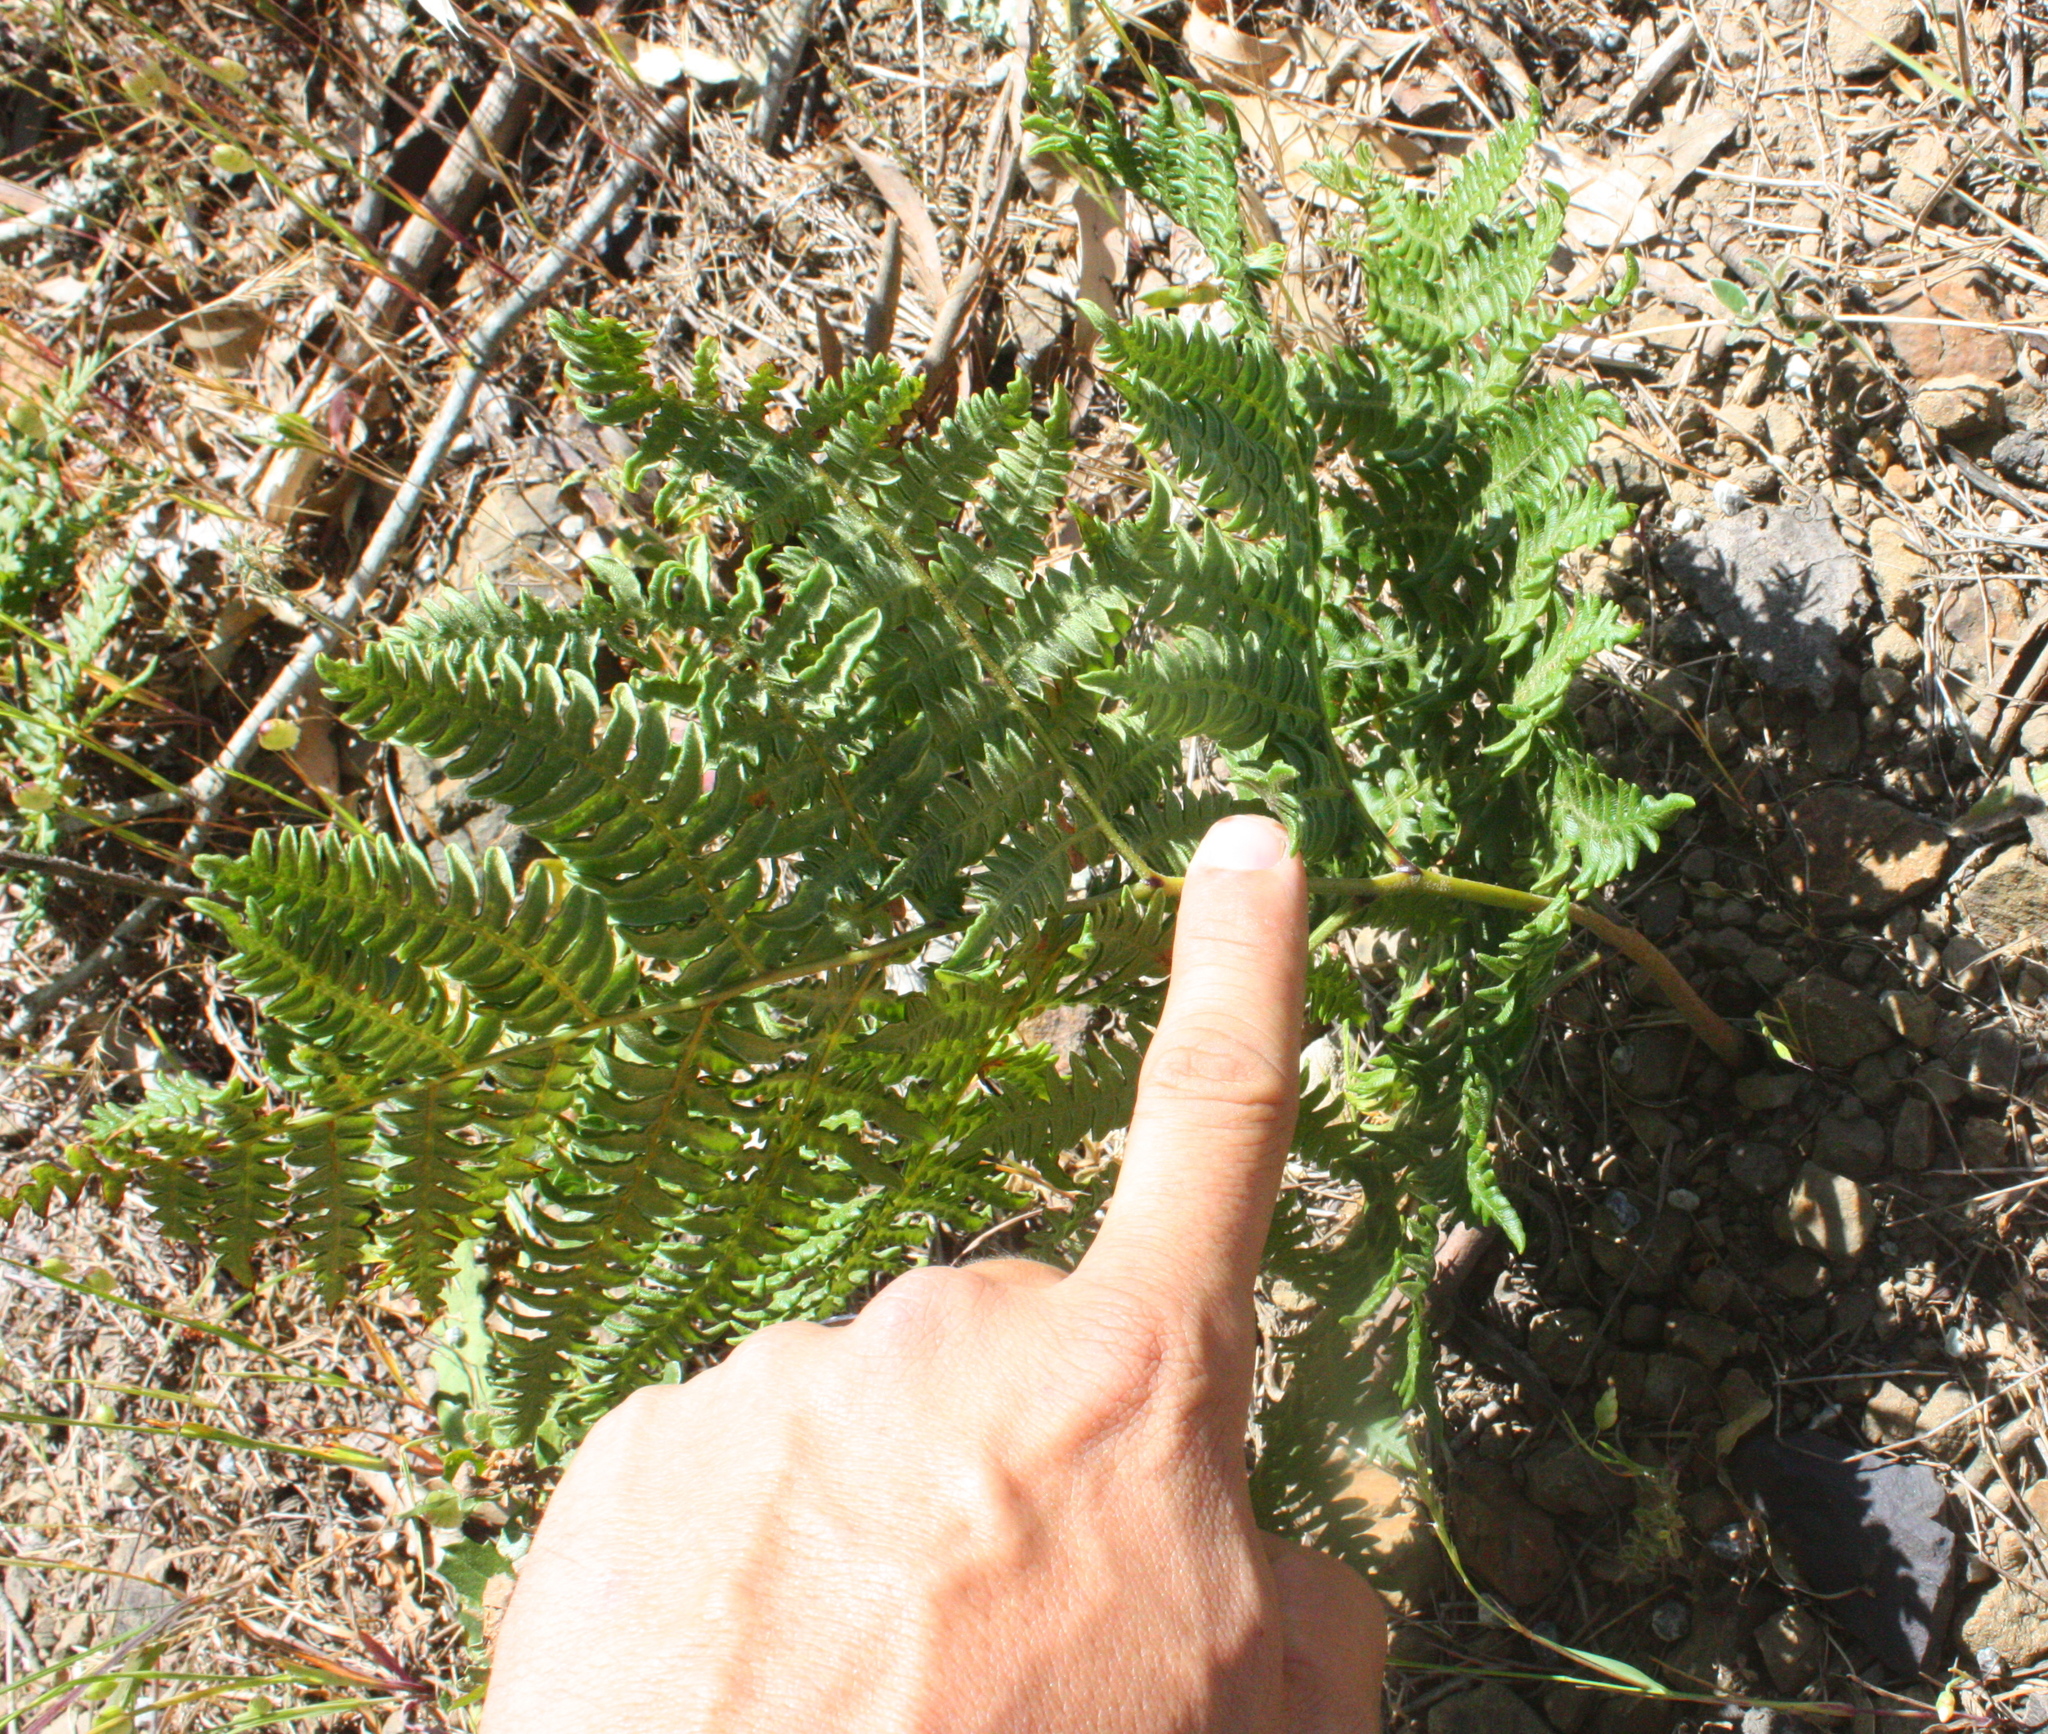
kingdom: Plantae
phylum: Tracheophyta
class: Polypodiopsida
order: Polypodiales
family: Dennstaedtiaceae
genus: Pteridium
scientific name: Pteridium aquilinum
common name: Bracken
